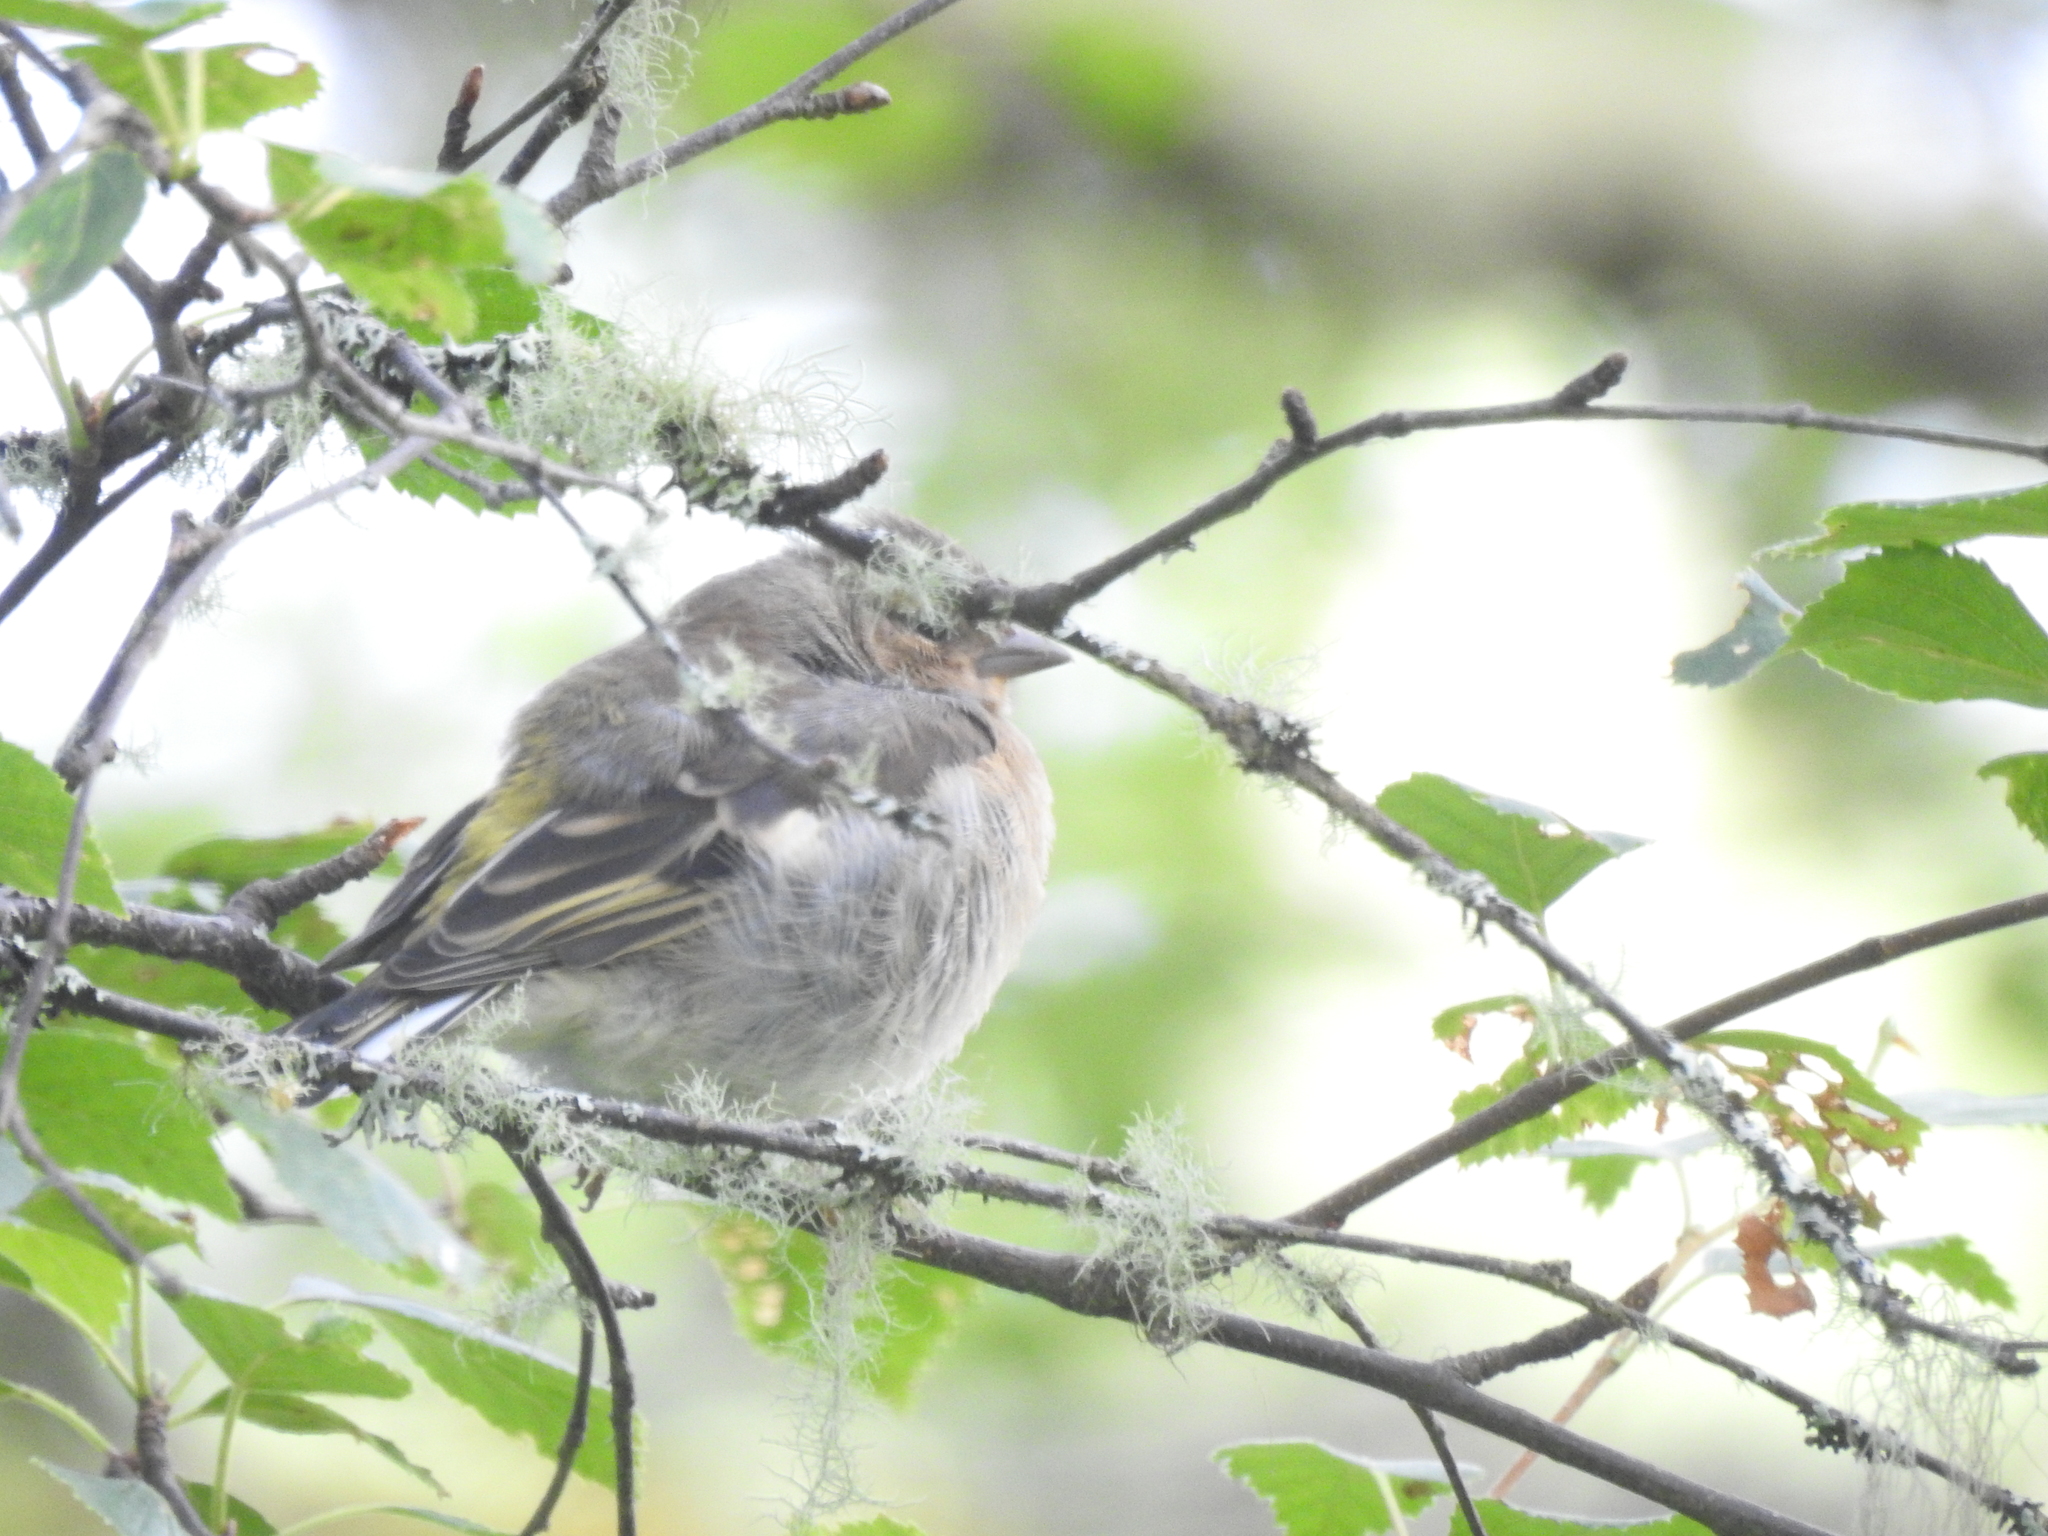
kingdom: Animalia
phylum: Chordata
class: Aves
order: Passeriformes
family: Fringillidae
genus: Fringilla
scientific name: Fringilla coelebs
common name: Common chaffinch
